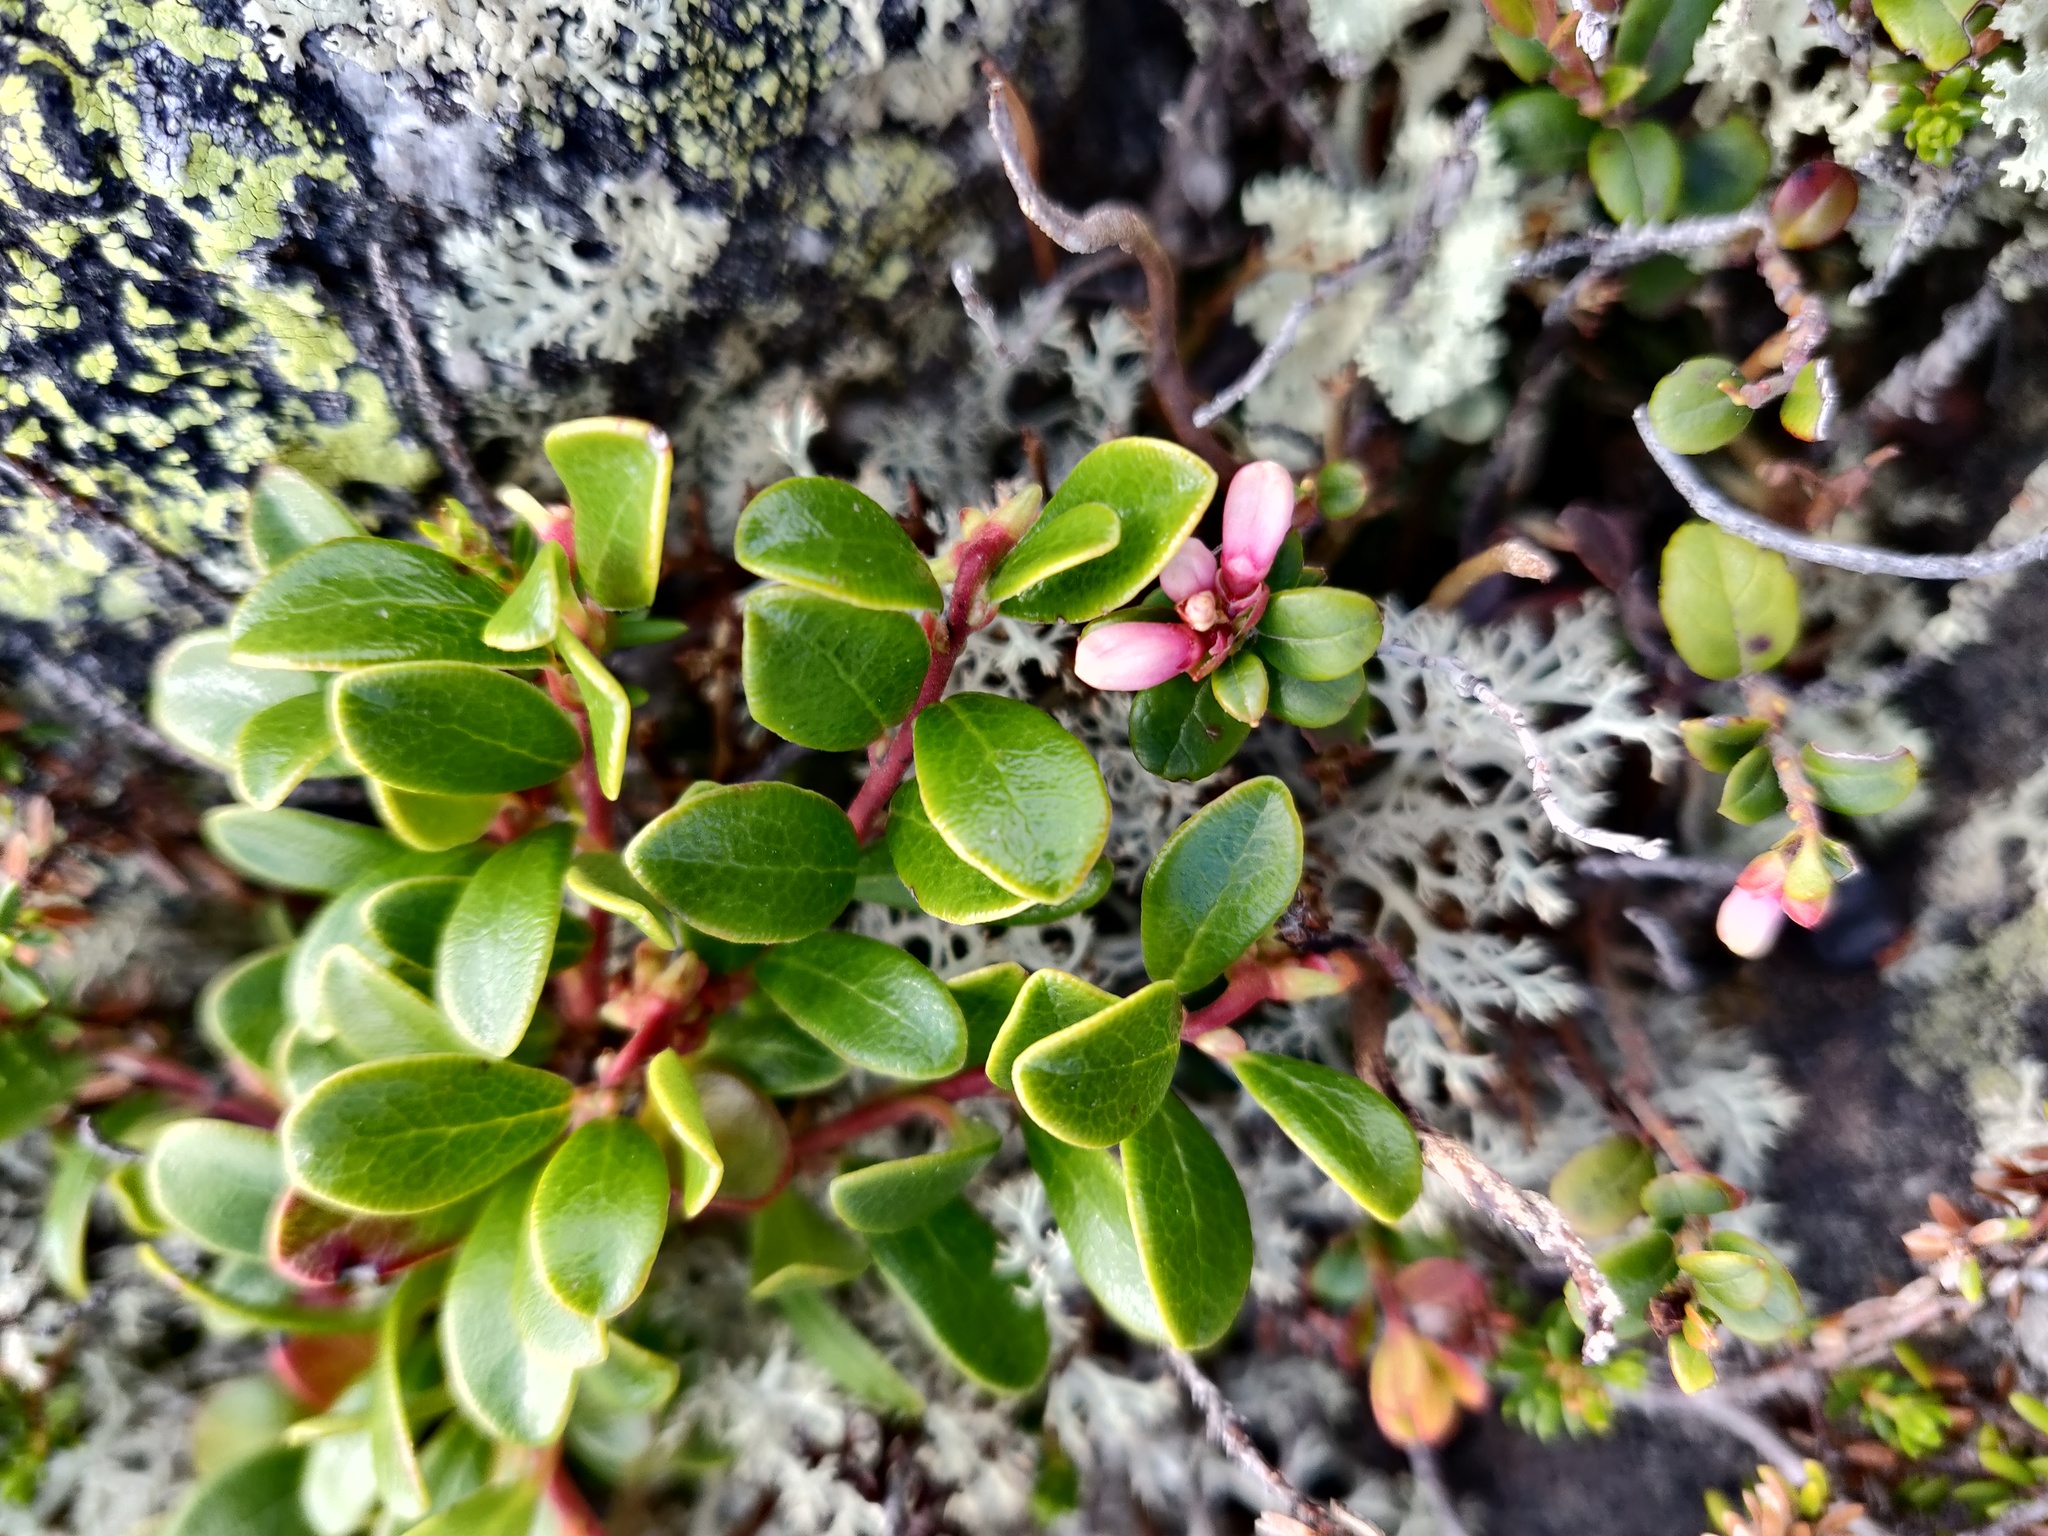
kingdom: Plantae
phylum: Tracheophyta
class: Magnoliopsida
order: Ericales
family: Ericaceae
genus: Arctostaphylos
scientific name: Arctostaphylos uva-ursi
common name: Bearberry
